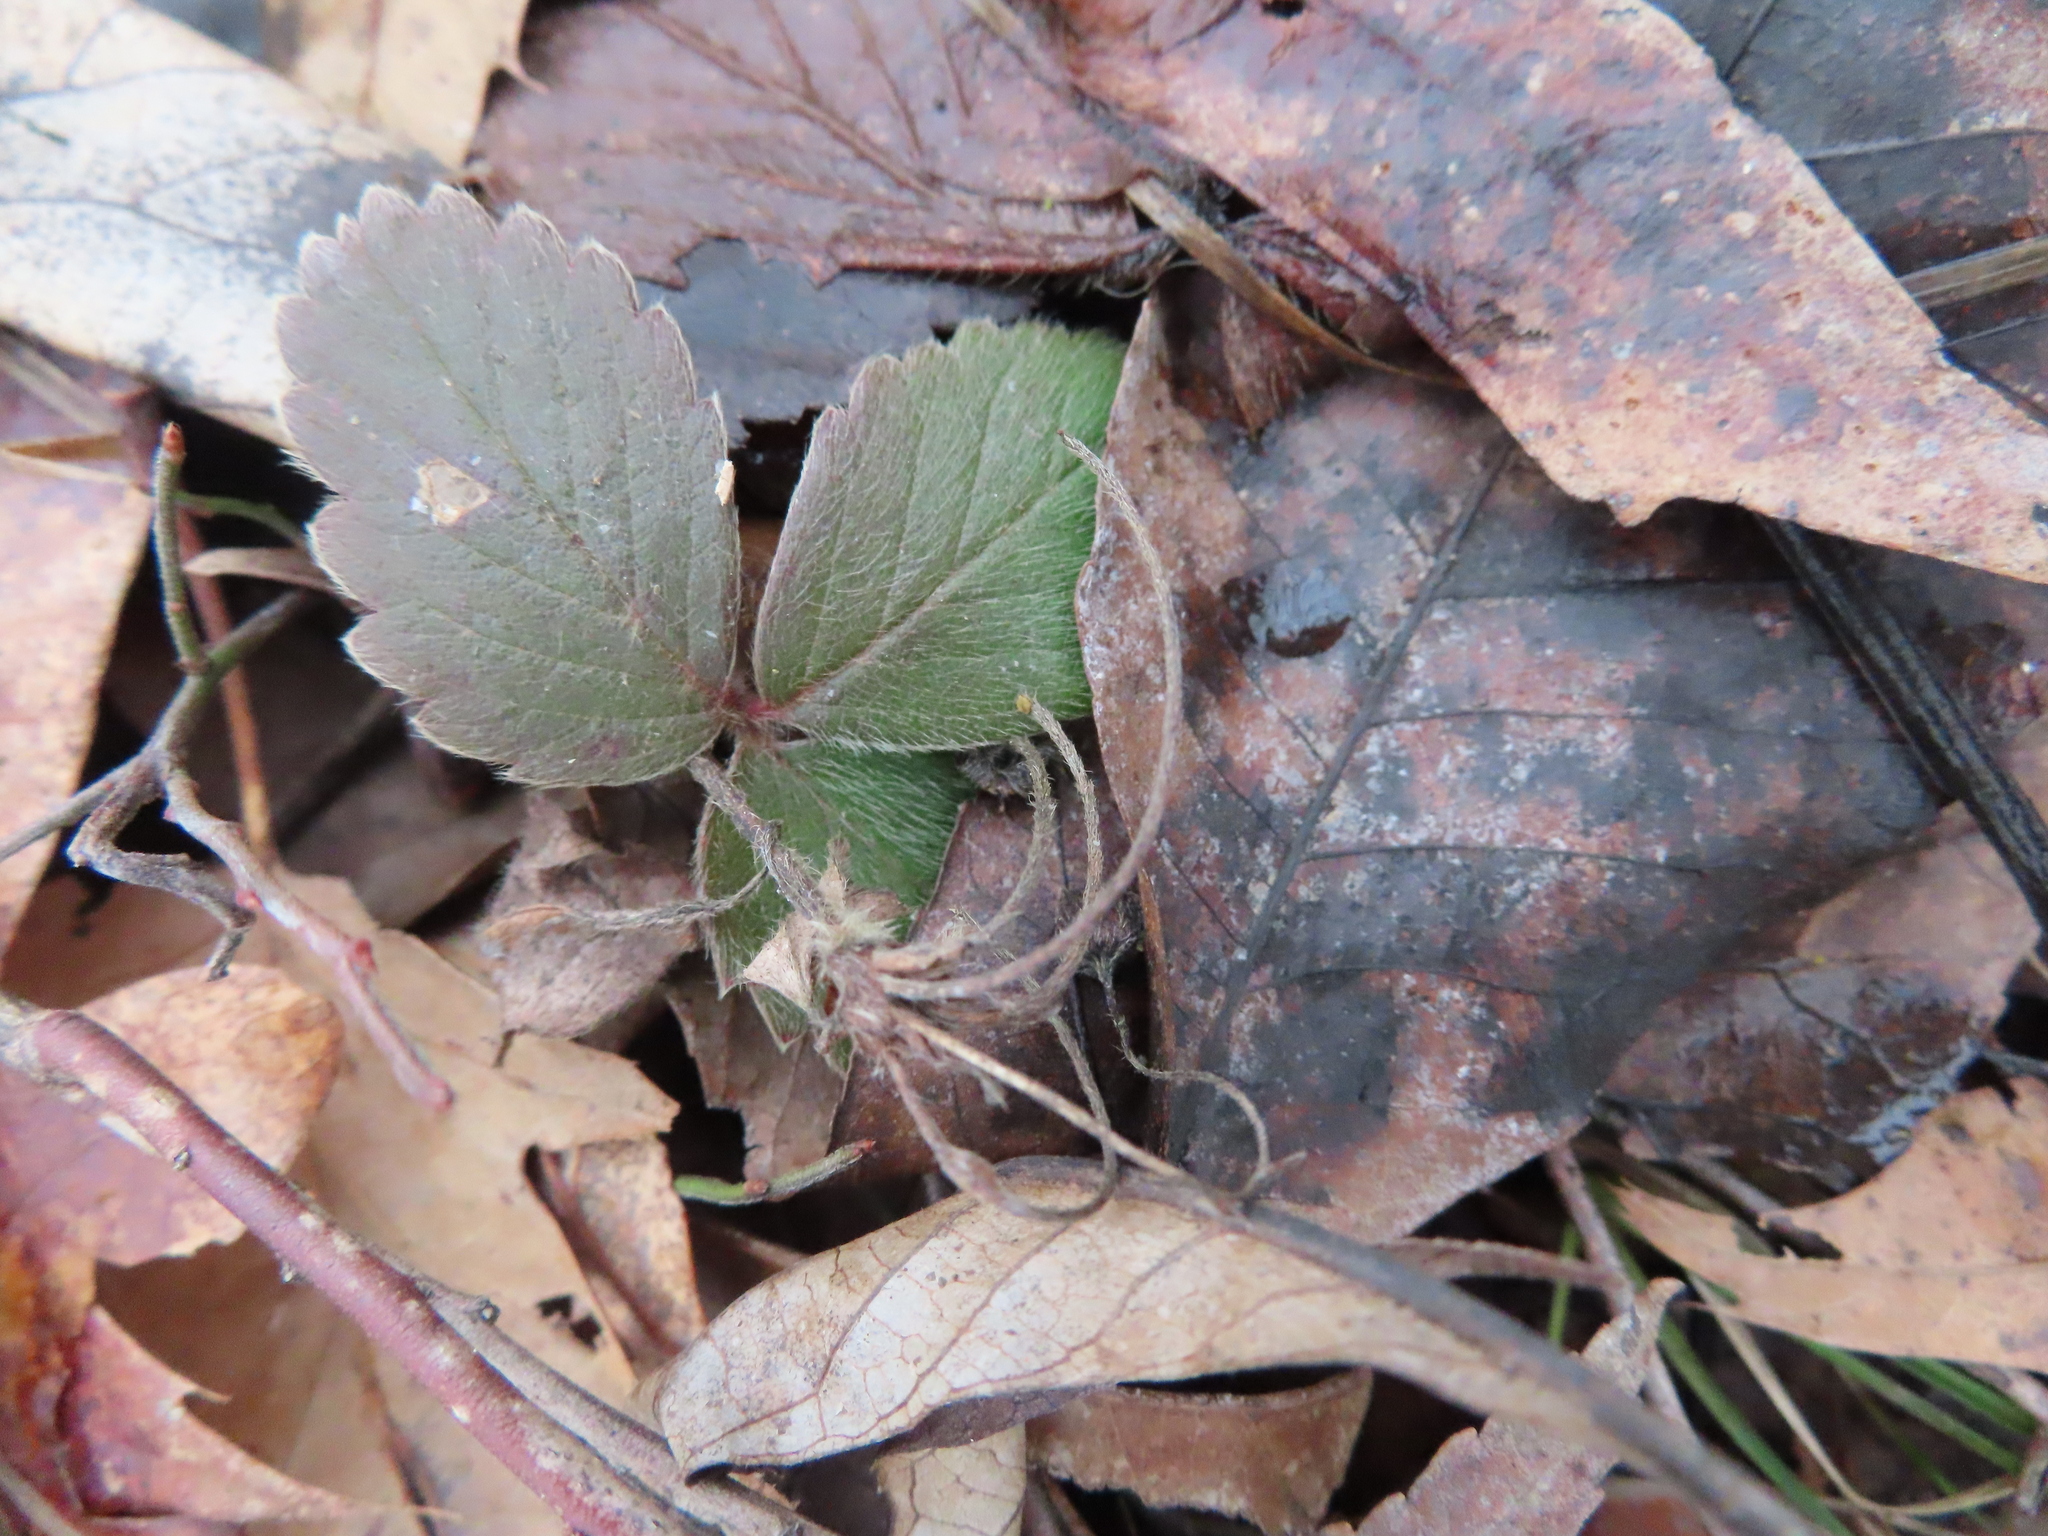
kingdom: Plantae
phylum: Tracheophyta
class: Magnoliopsida
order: Rosales
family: Rosaceae
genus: Fragaria
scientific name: Fragaria virginiana
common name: Thickleaved wild strawberry
